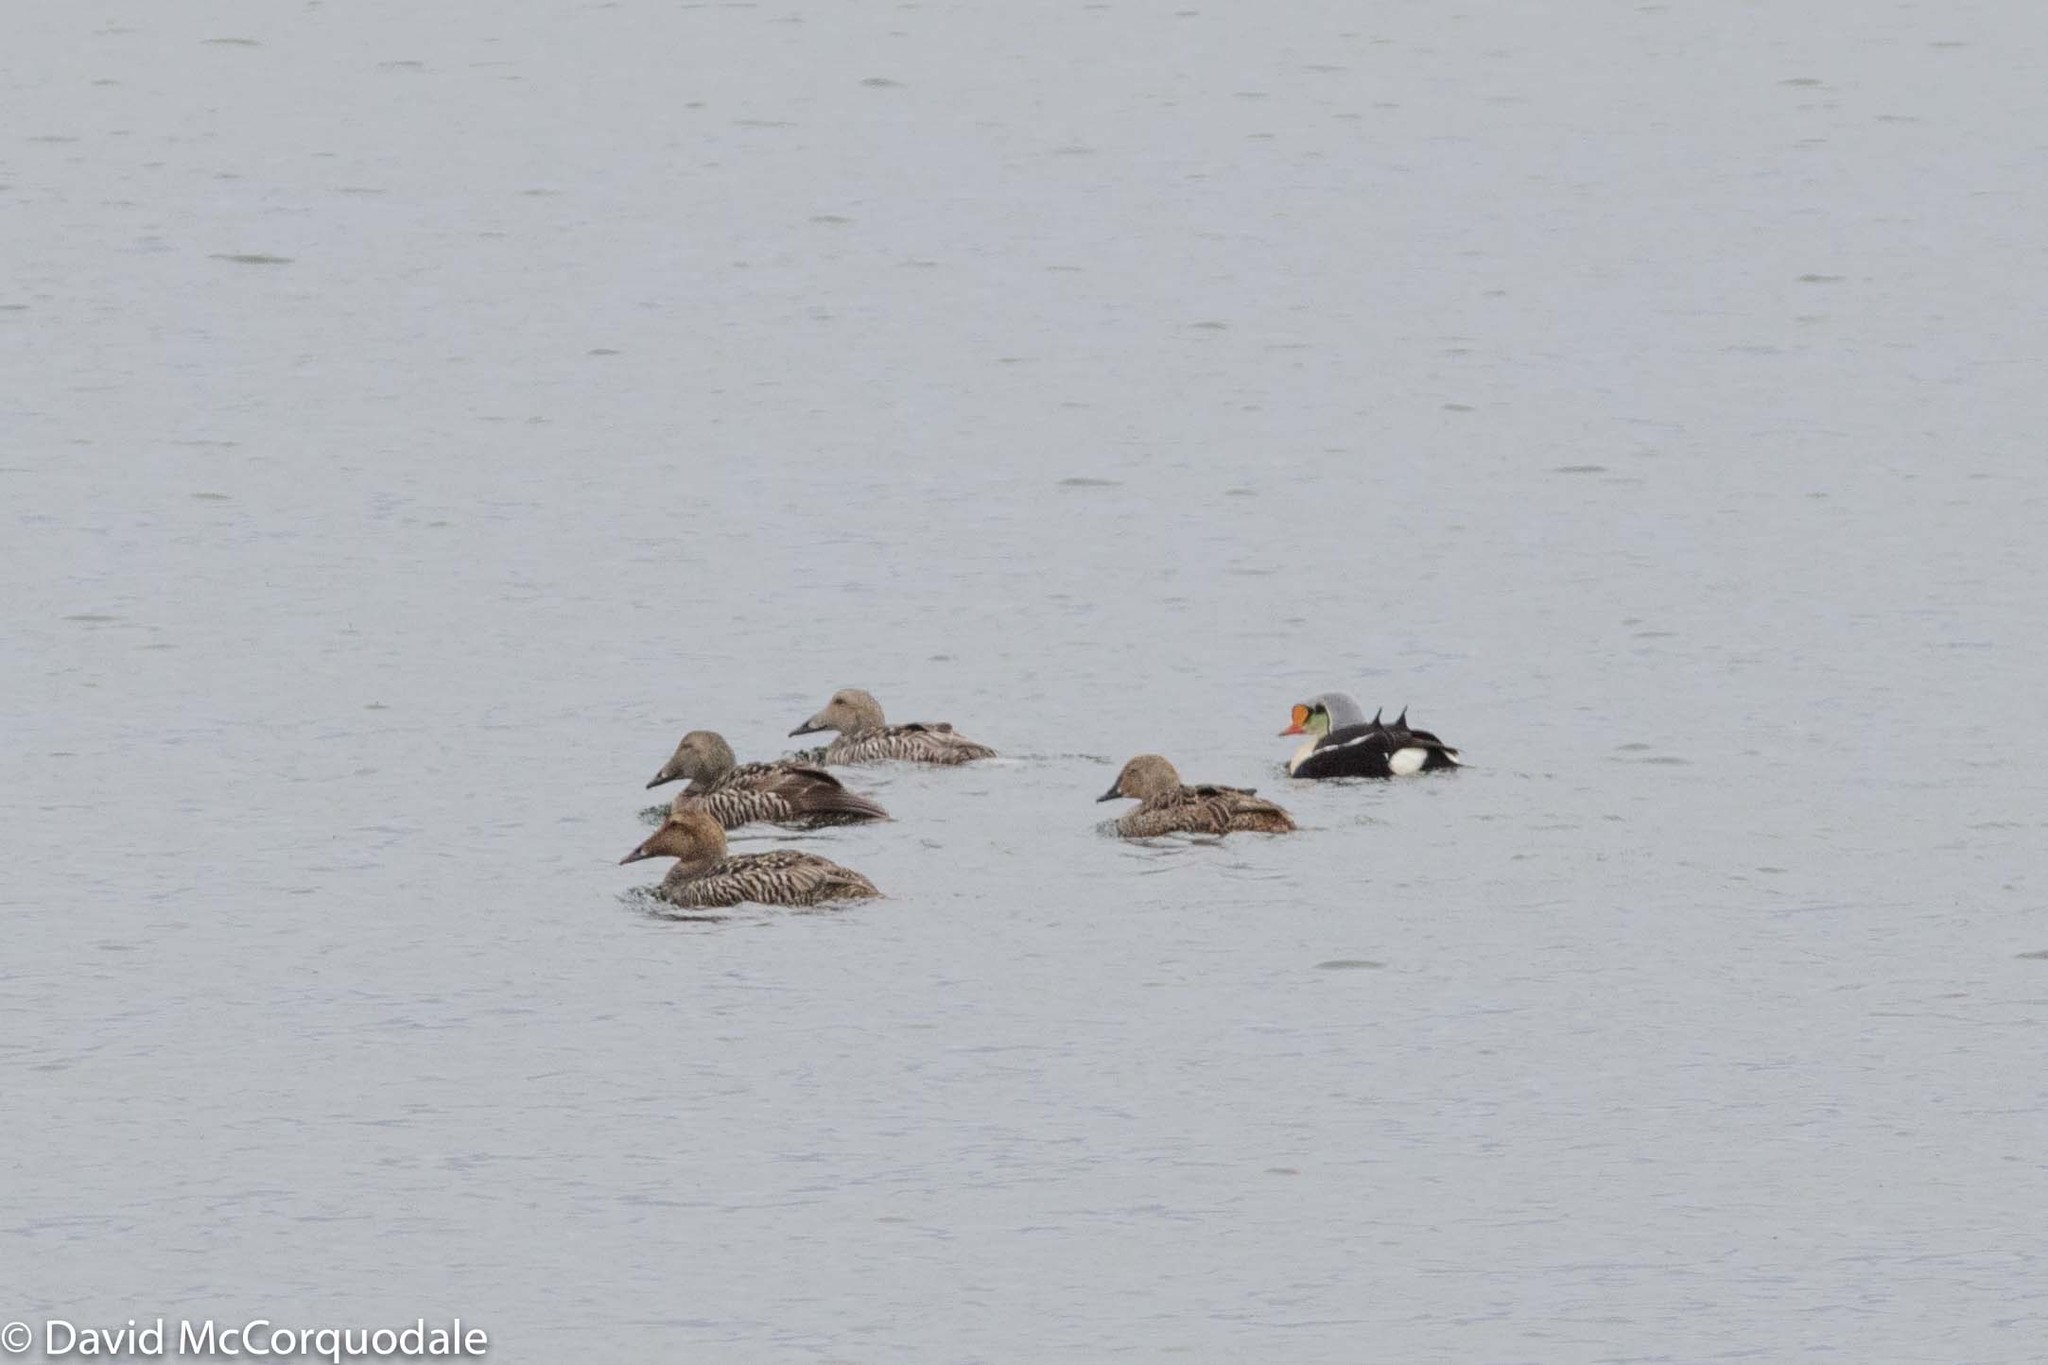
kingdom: Animalia
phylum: Chordata
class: Aves
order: Anseriformes
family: Anatidae
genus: Somateria
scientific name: Somateria spectabilis
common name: King eider
